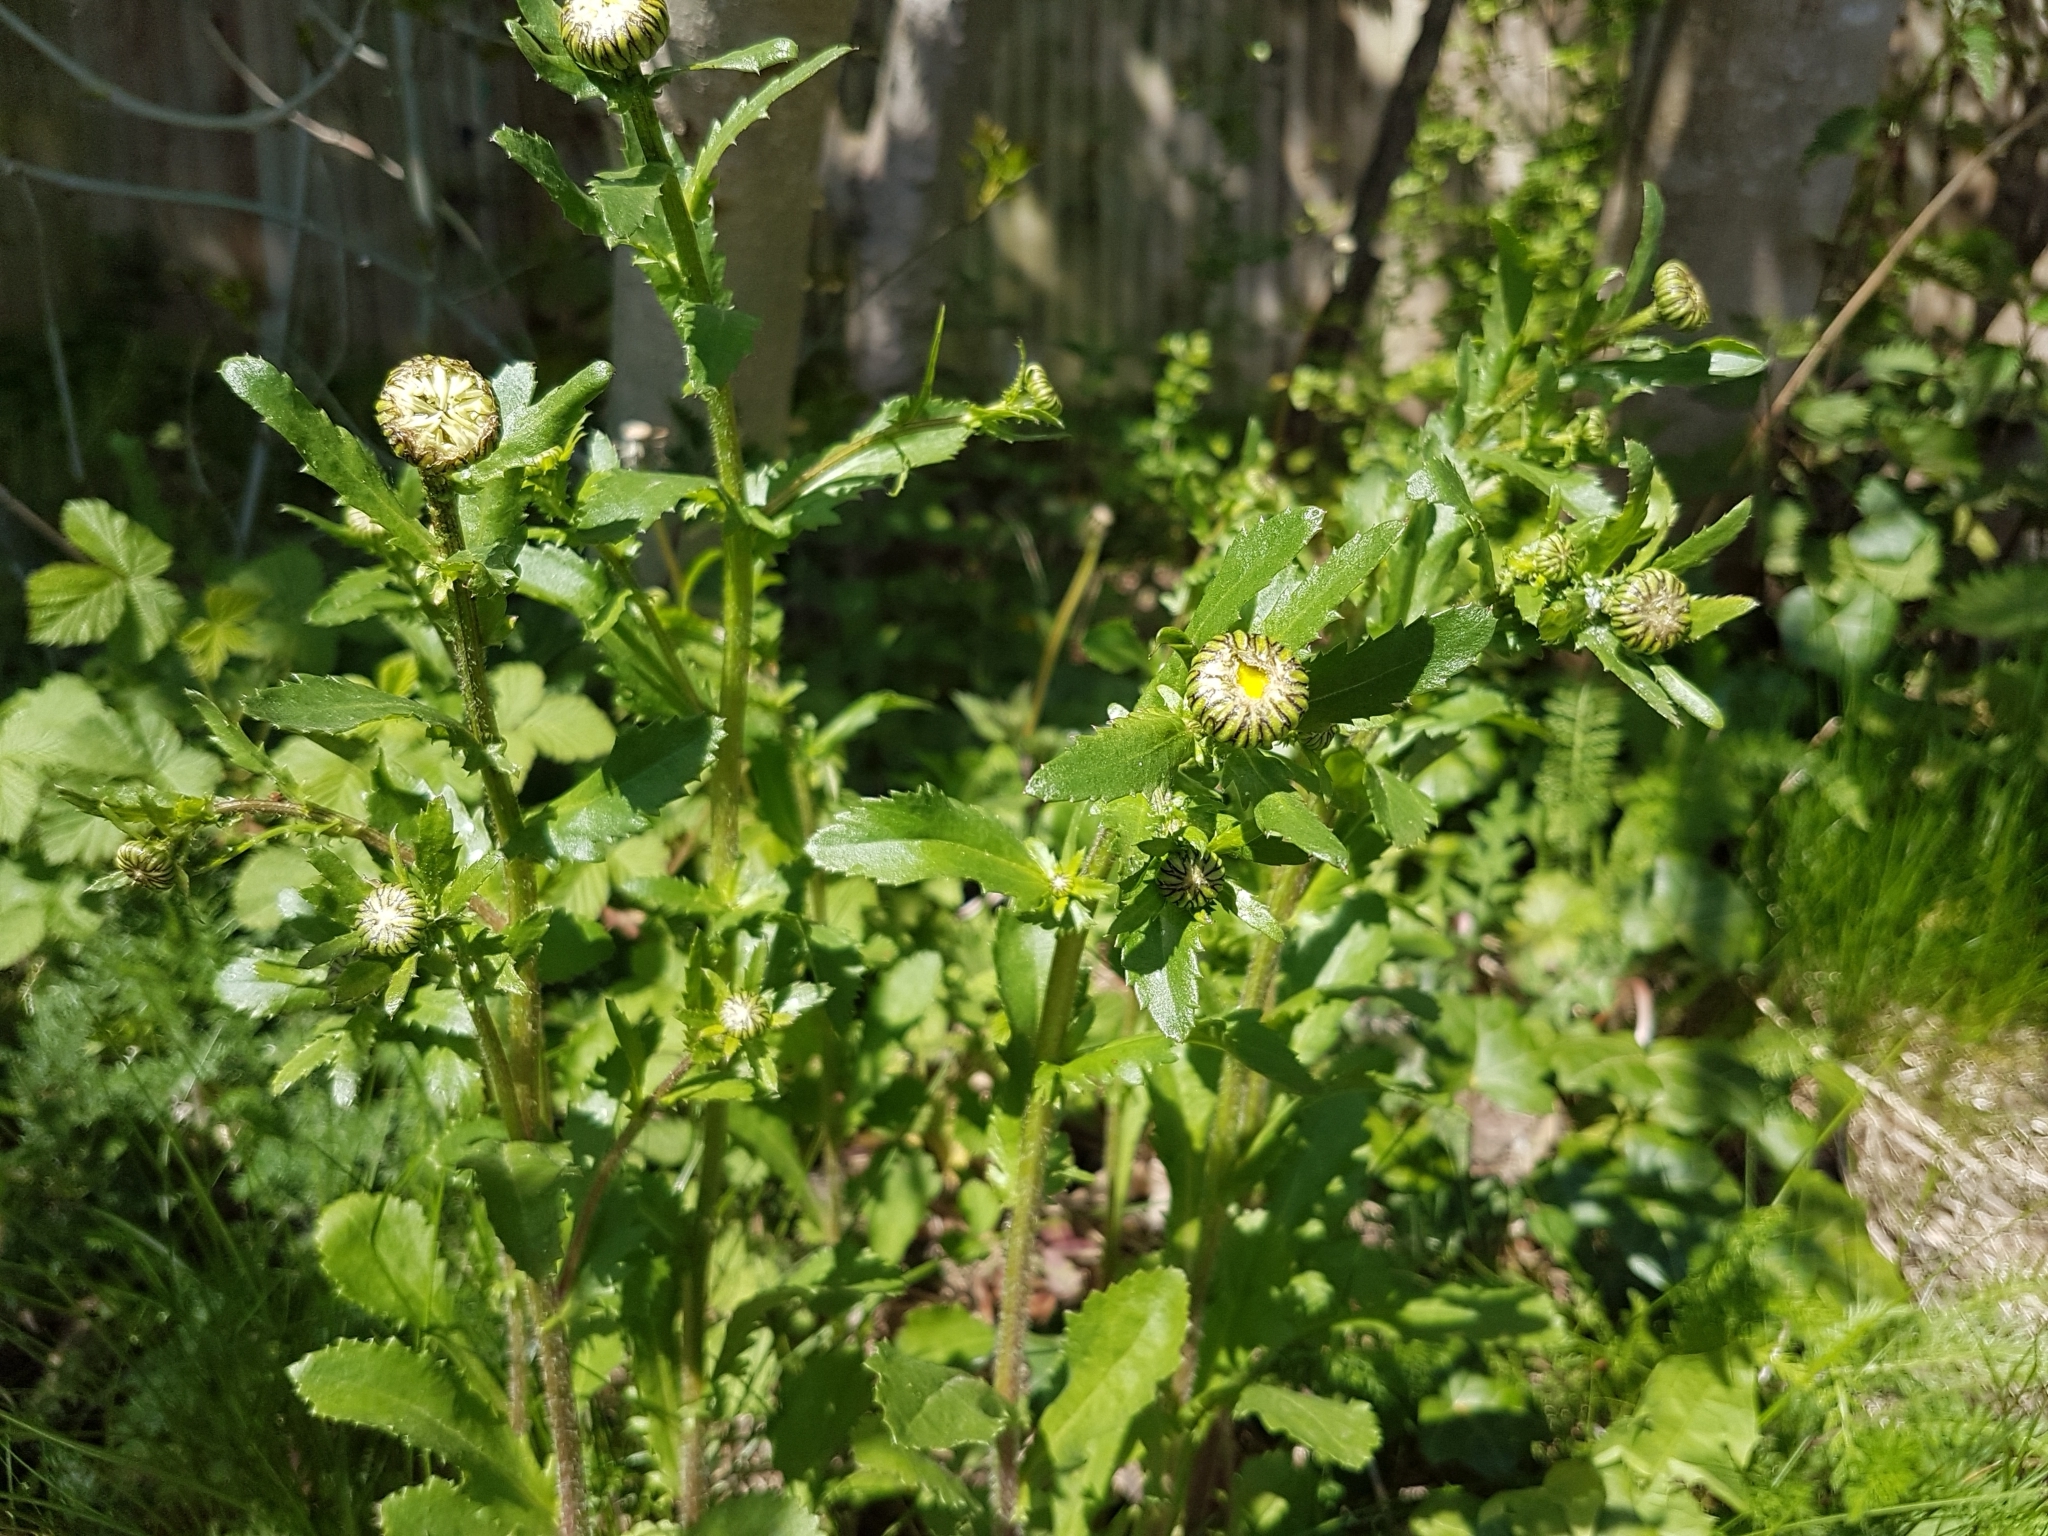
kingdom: Plantae
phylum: Tracheophyta
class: Magnoliopsida
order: Asterales
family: Asteraceae
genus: Leucanthemum
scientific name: Leucanthemum vulgare
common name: Oxeye daisy
